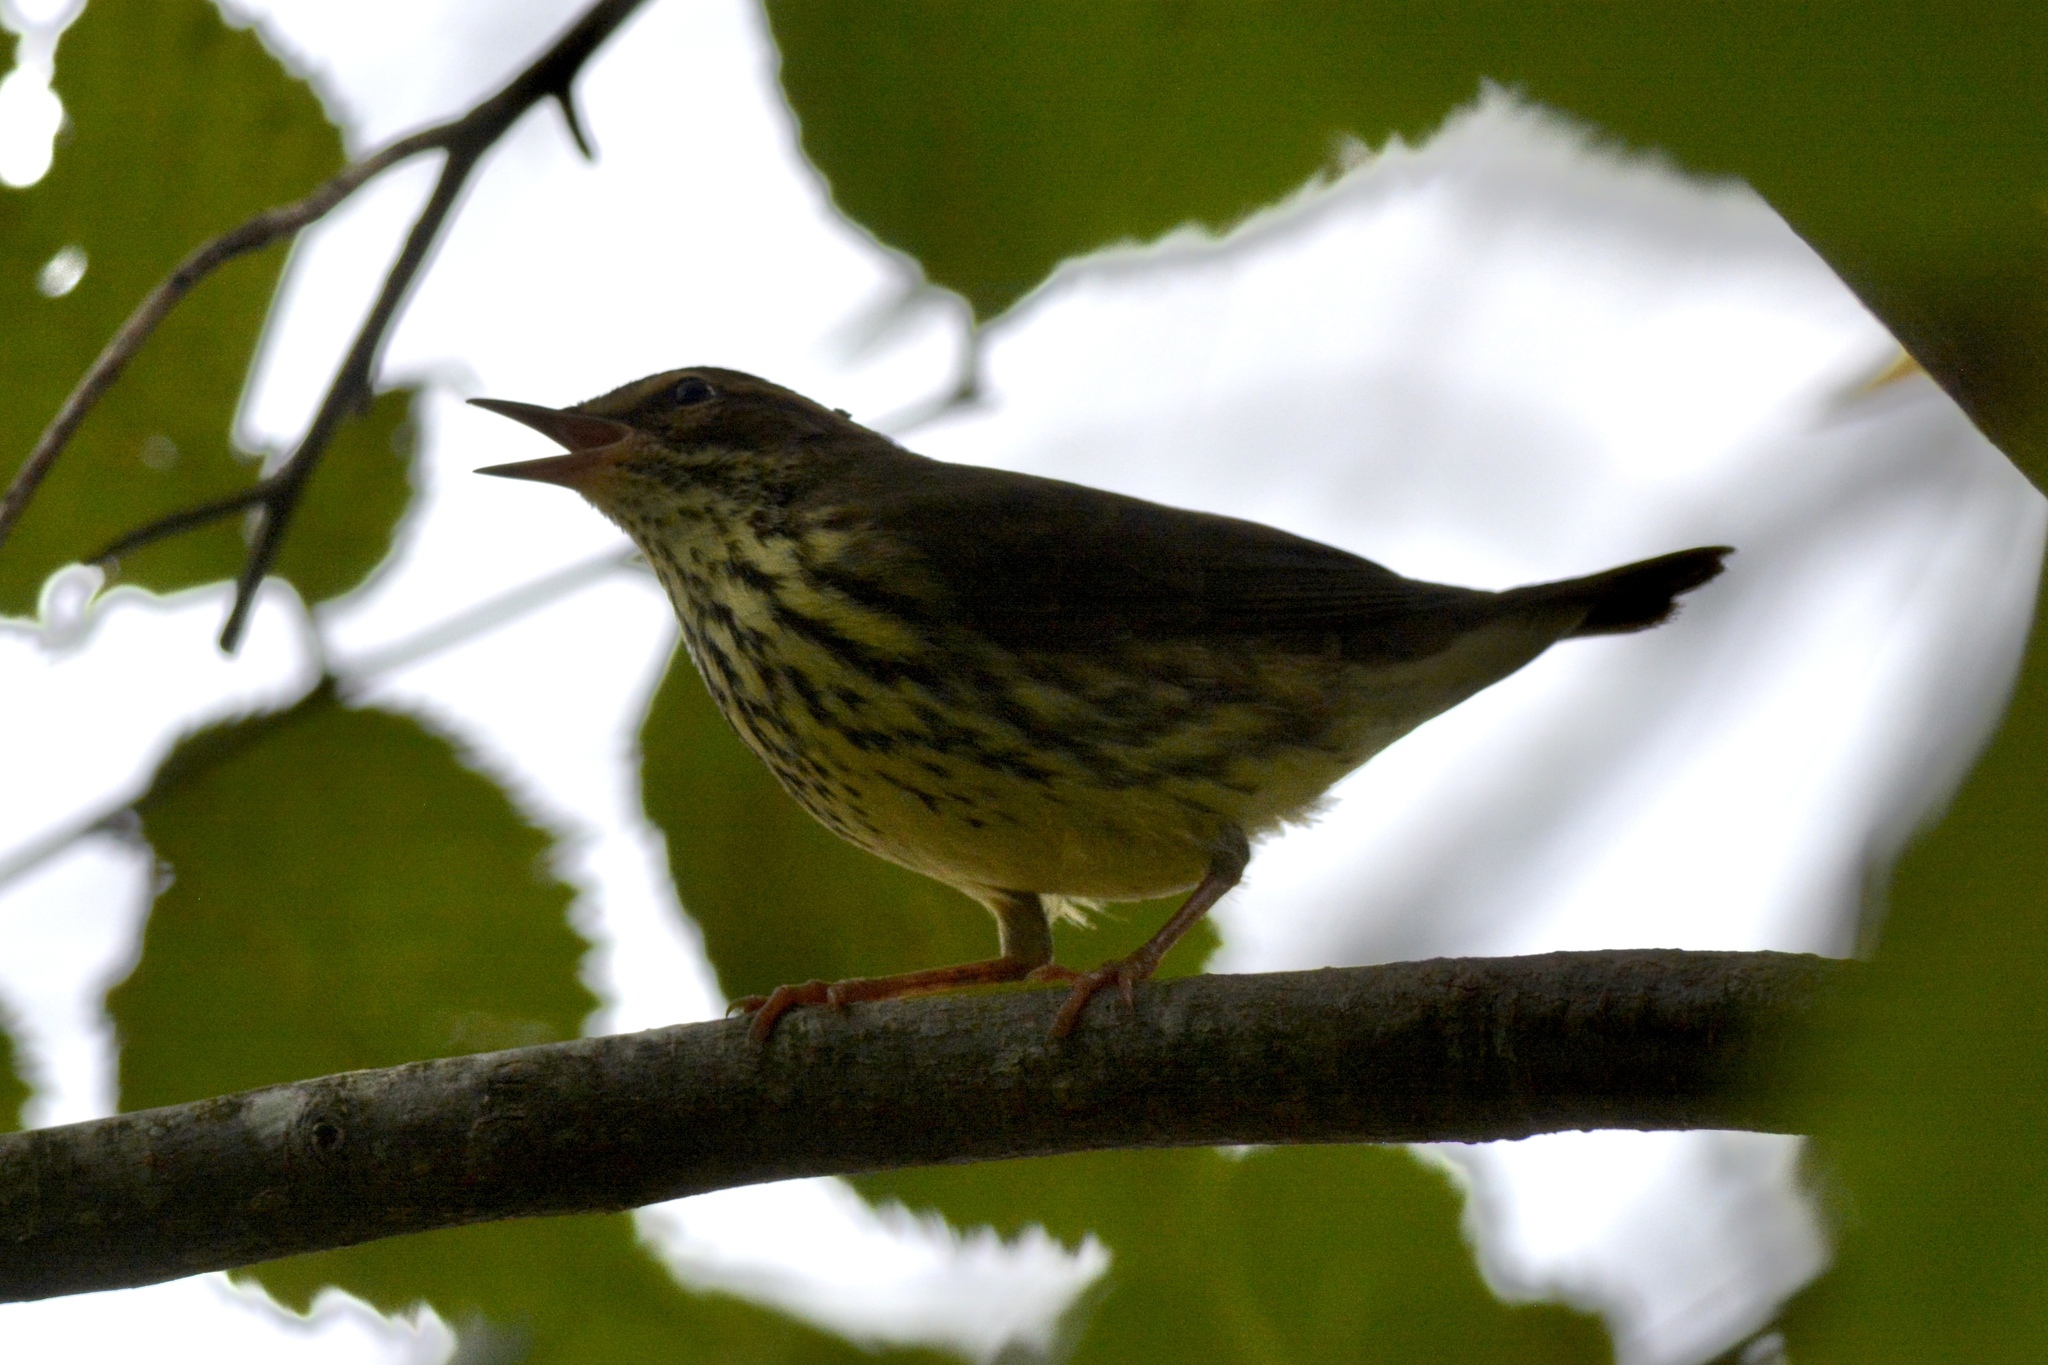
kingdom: Animalia
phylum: Chordata
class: Aves
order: Passeriformes
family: Parulidae
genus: Parkesia
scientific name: Parkesia noveboracensis
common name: Northern waterthrush
